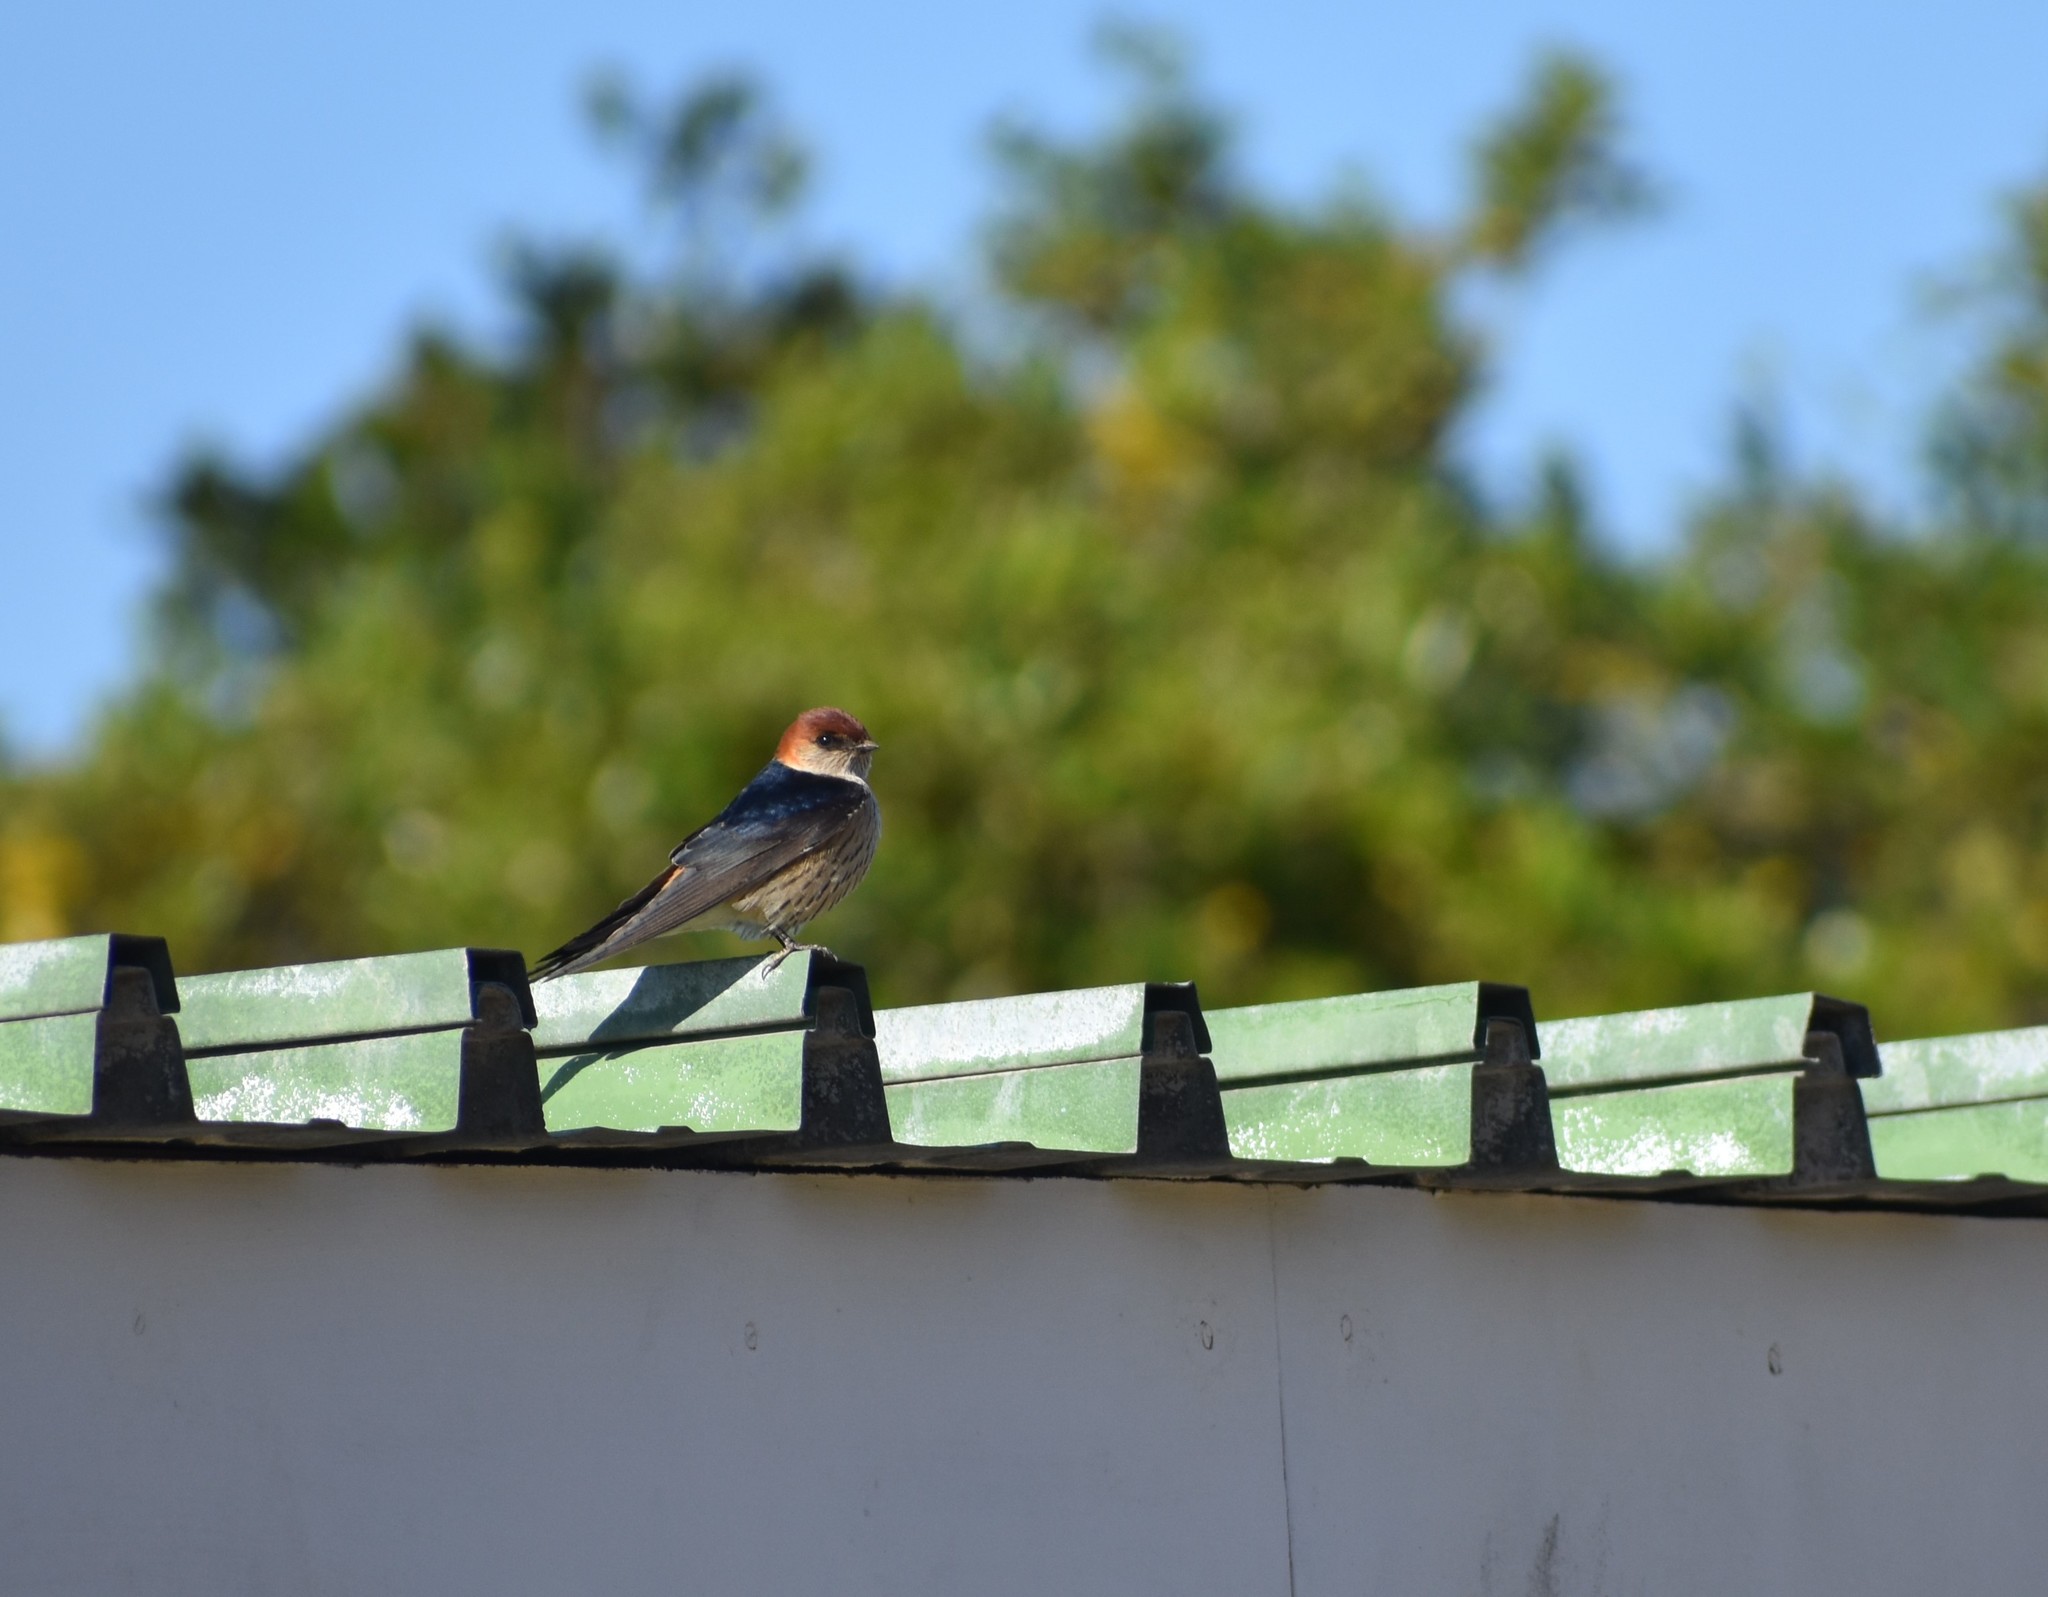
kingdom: Animalia
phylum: Chordata
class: Aves
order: Passeriformes
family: Hirundinidae
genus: Cecropis
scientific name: Cecropis cucullata
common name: Greater striped-swallow
